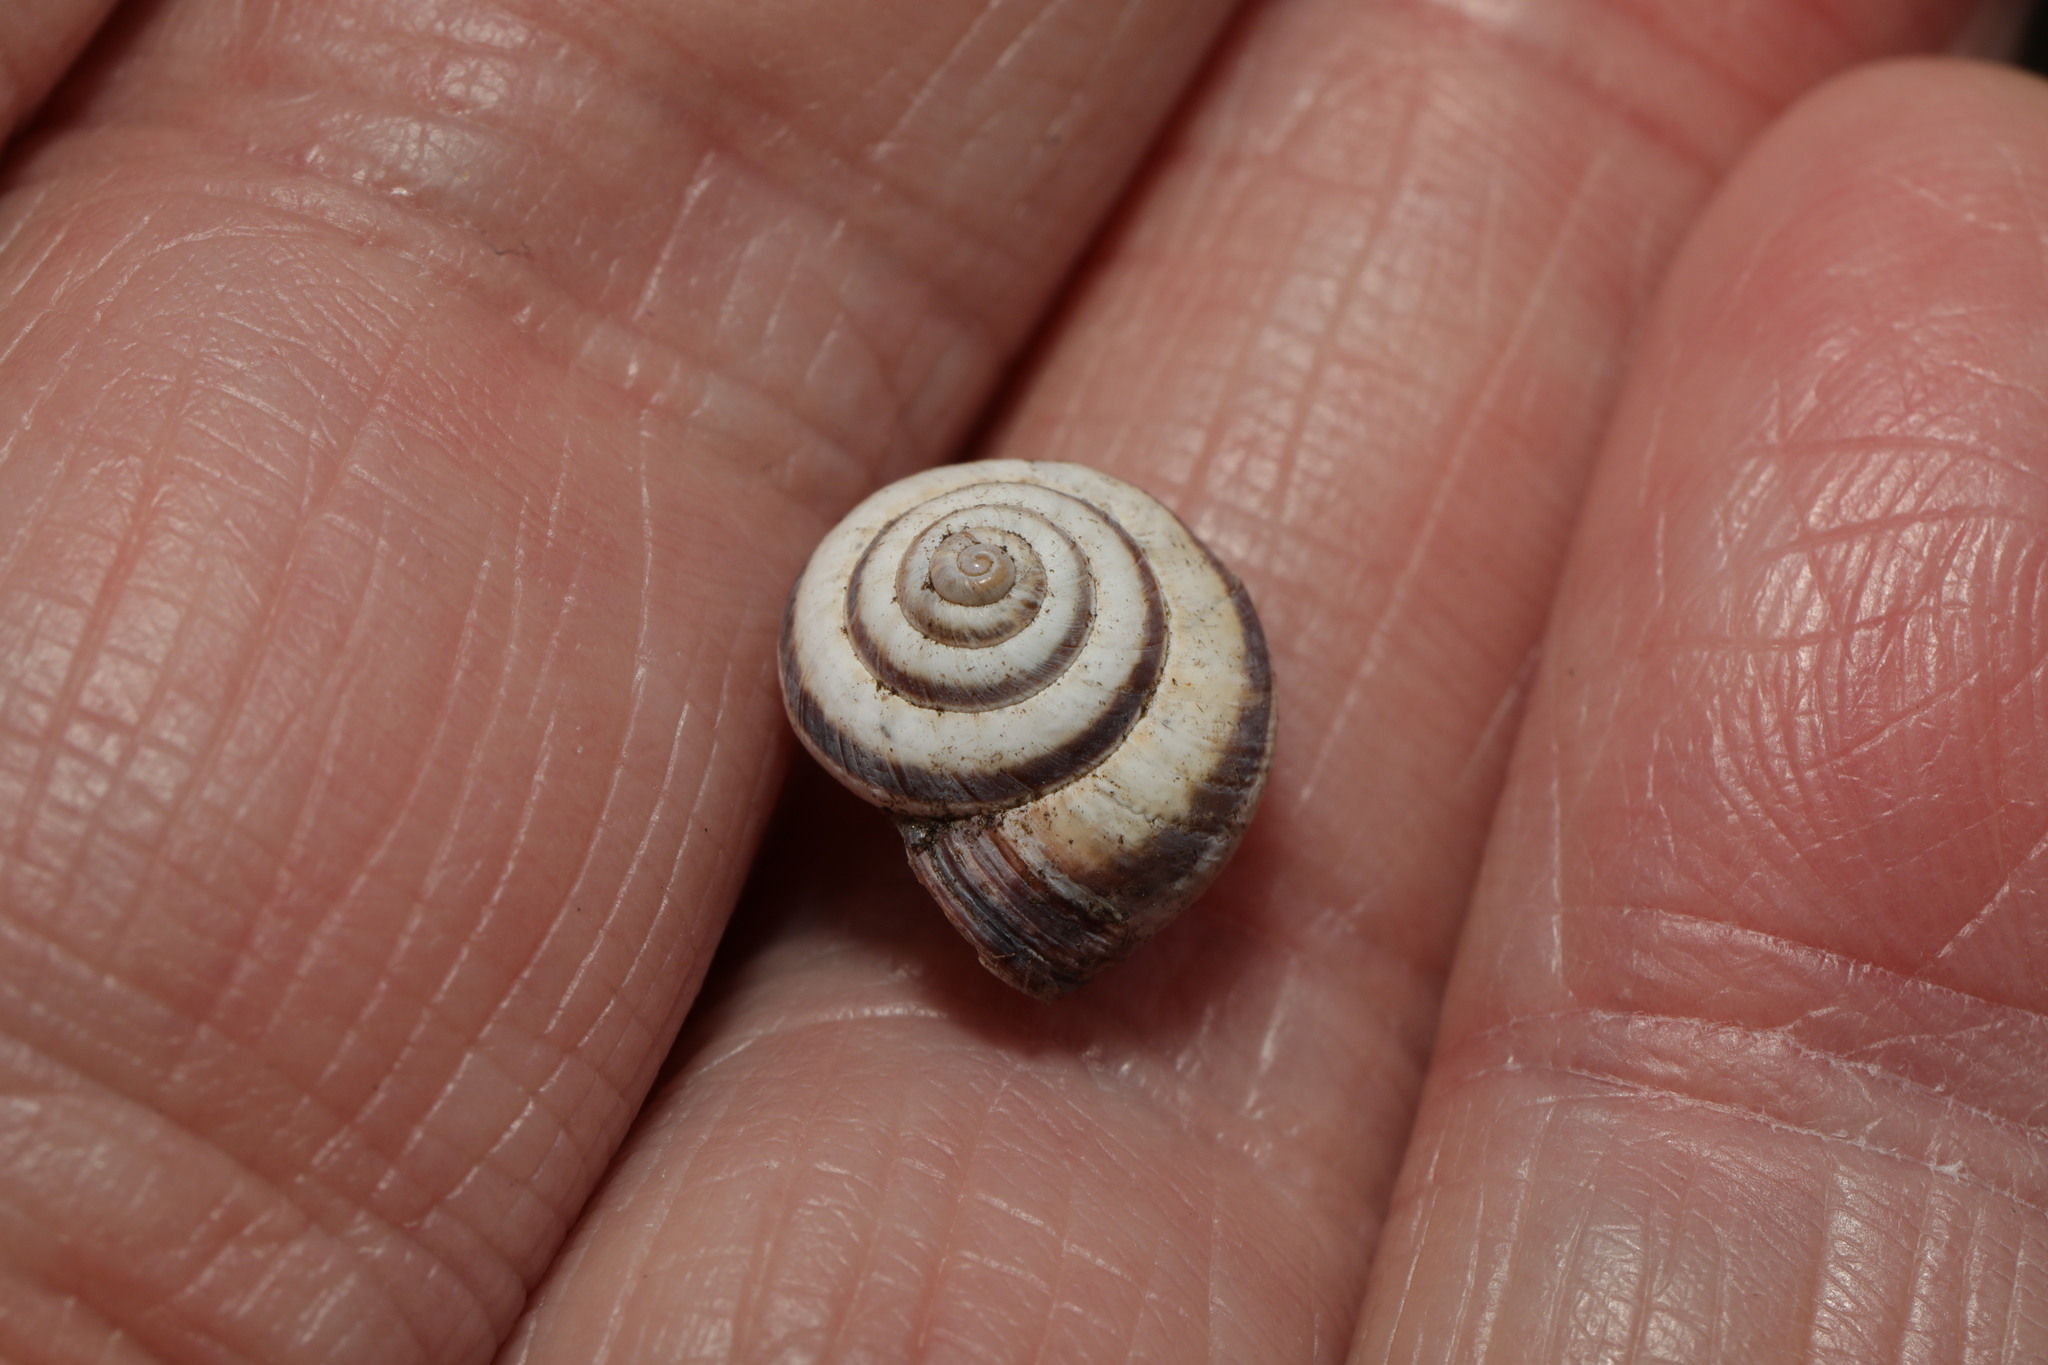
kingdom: Animalia
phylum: Mollusca
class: Gastropoda
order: Stylommatophora
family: Geomitridae
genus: Cernuella
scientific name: Cernuella virgata
